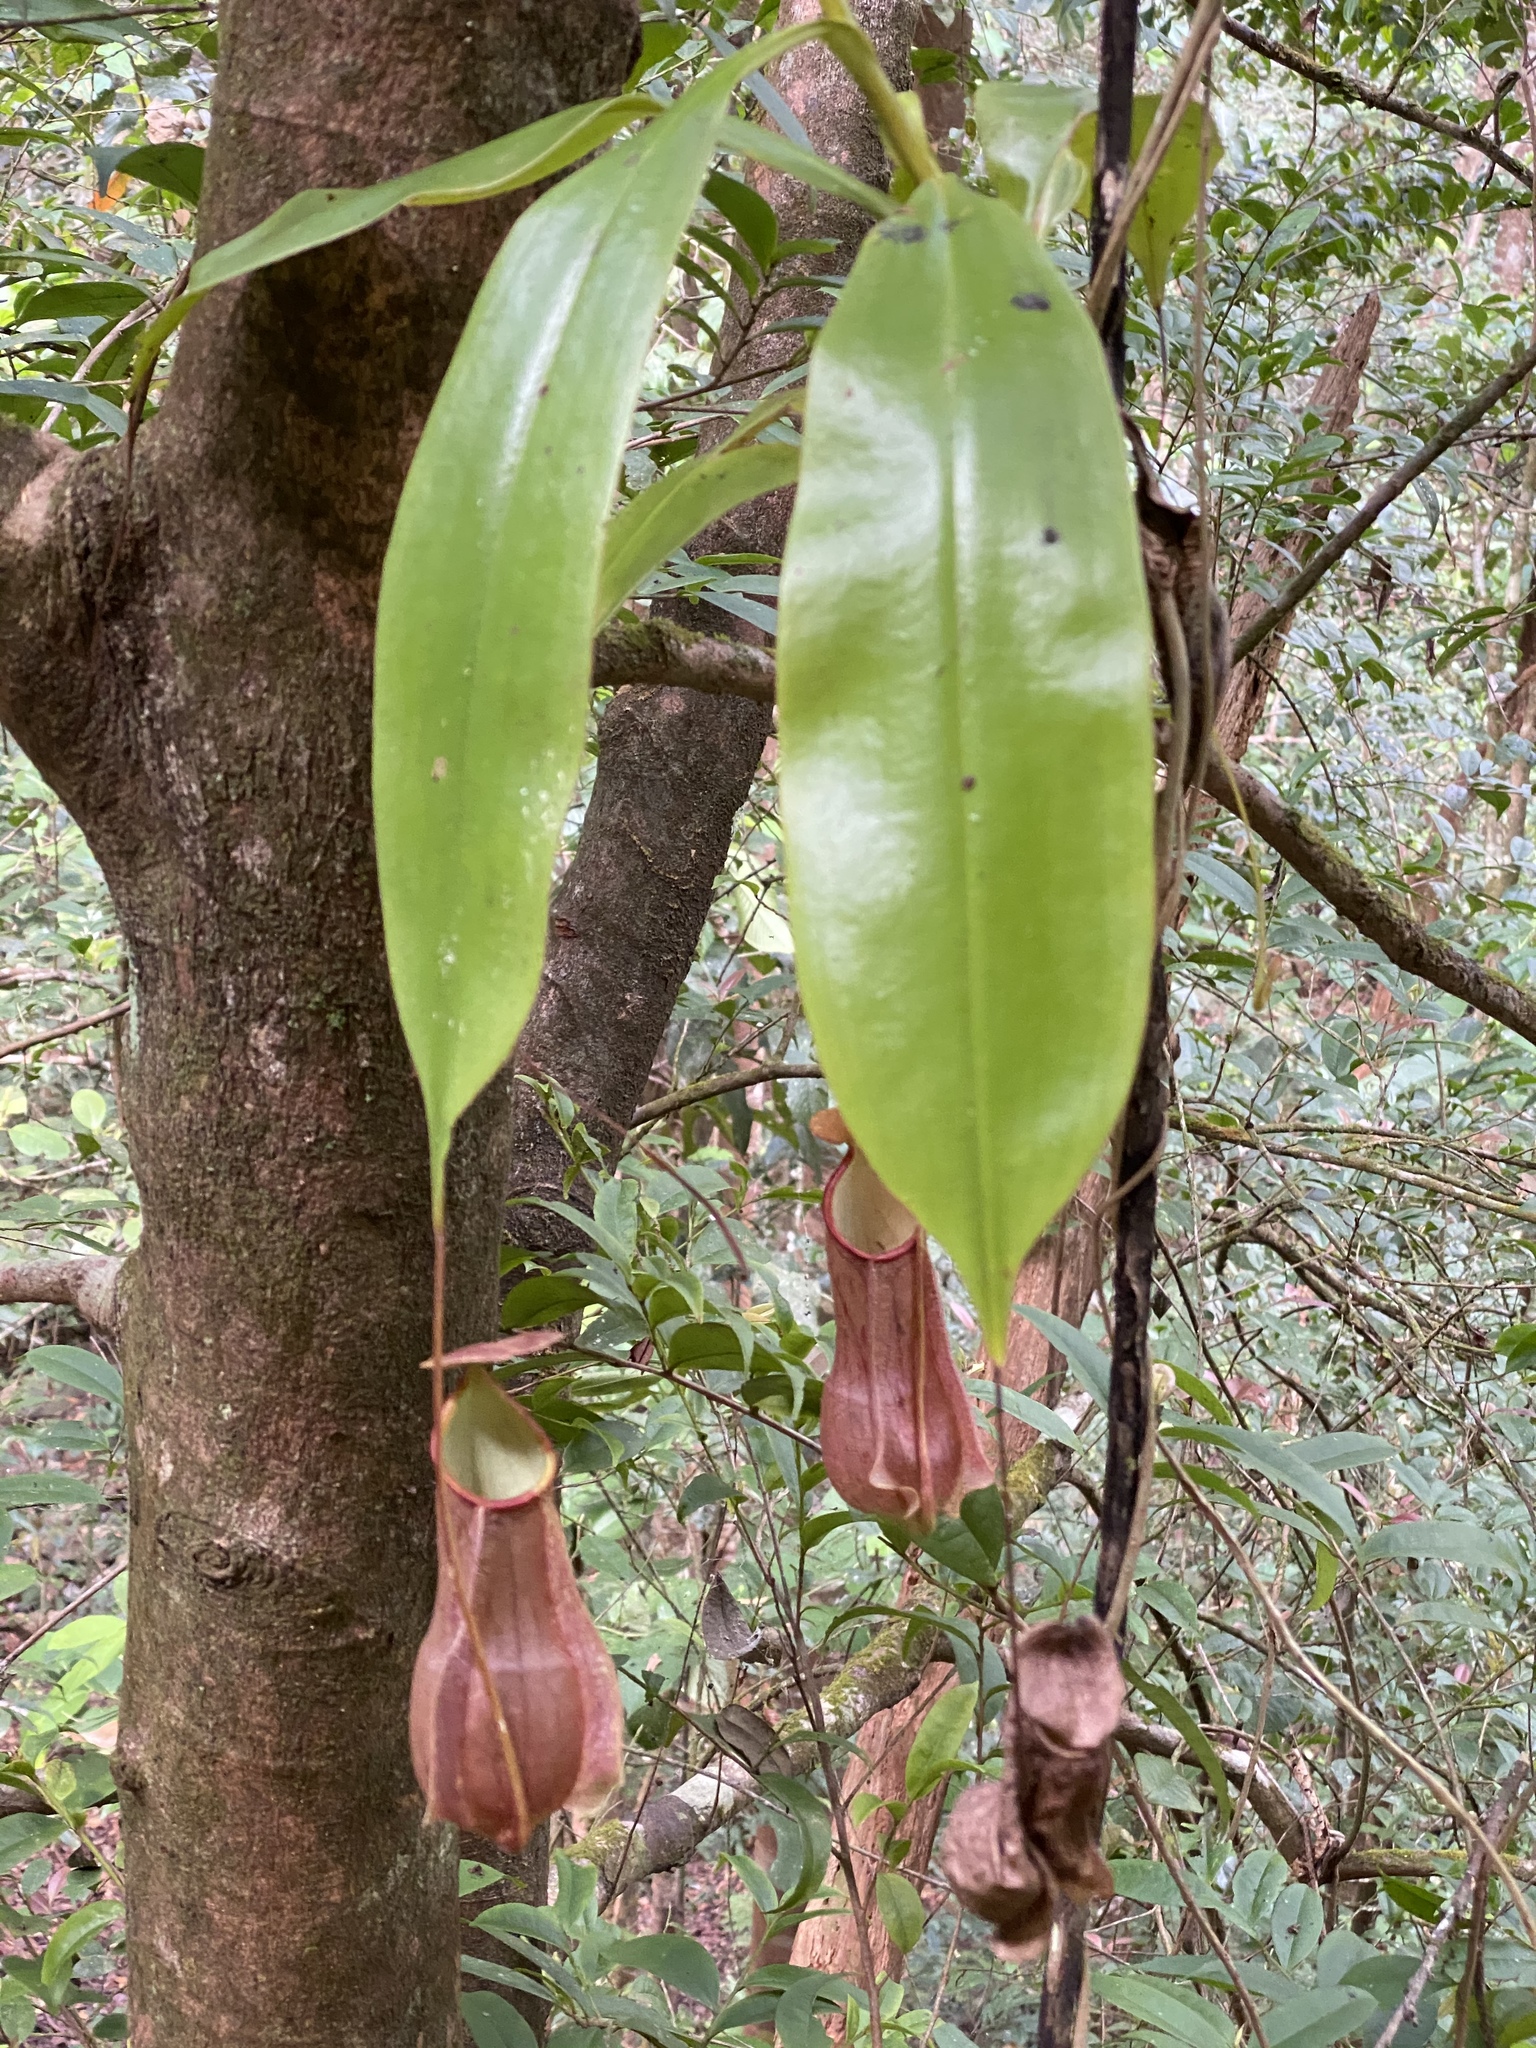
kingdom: Plantae
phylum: Tracheophyta
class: Magnoliopsida
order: Caryophyllales
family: Nepenthaceae
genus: Nepenthes
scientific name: Nepenthes distillatoria
